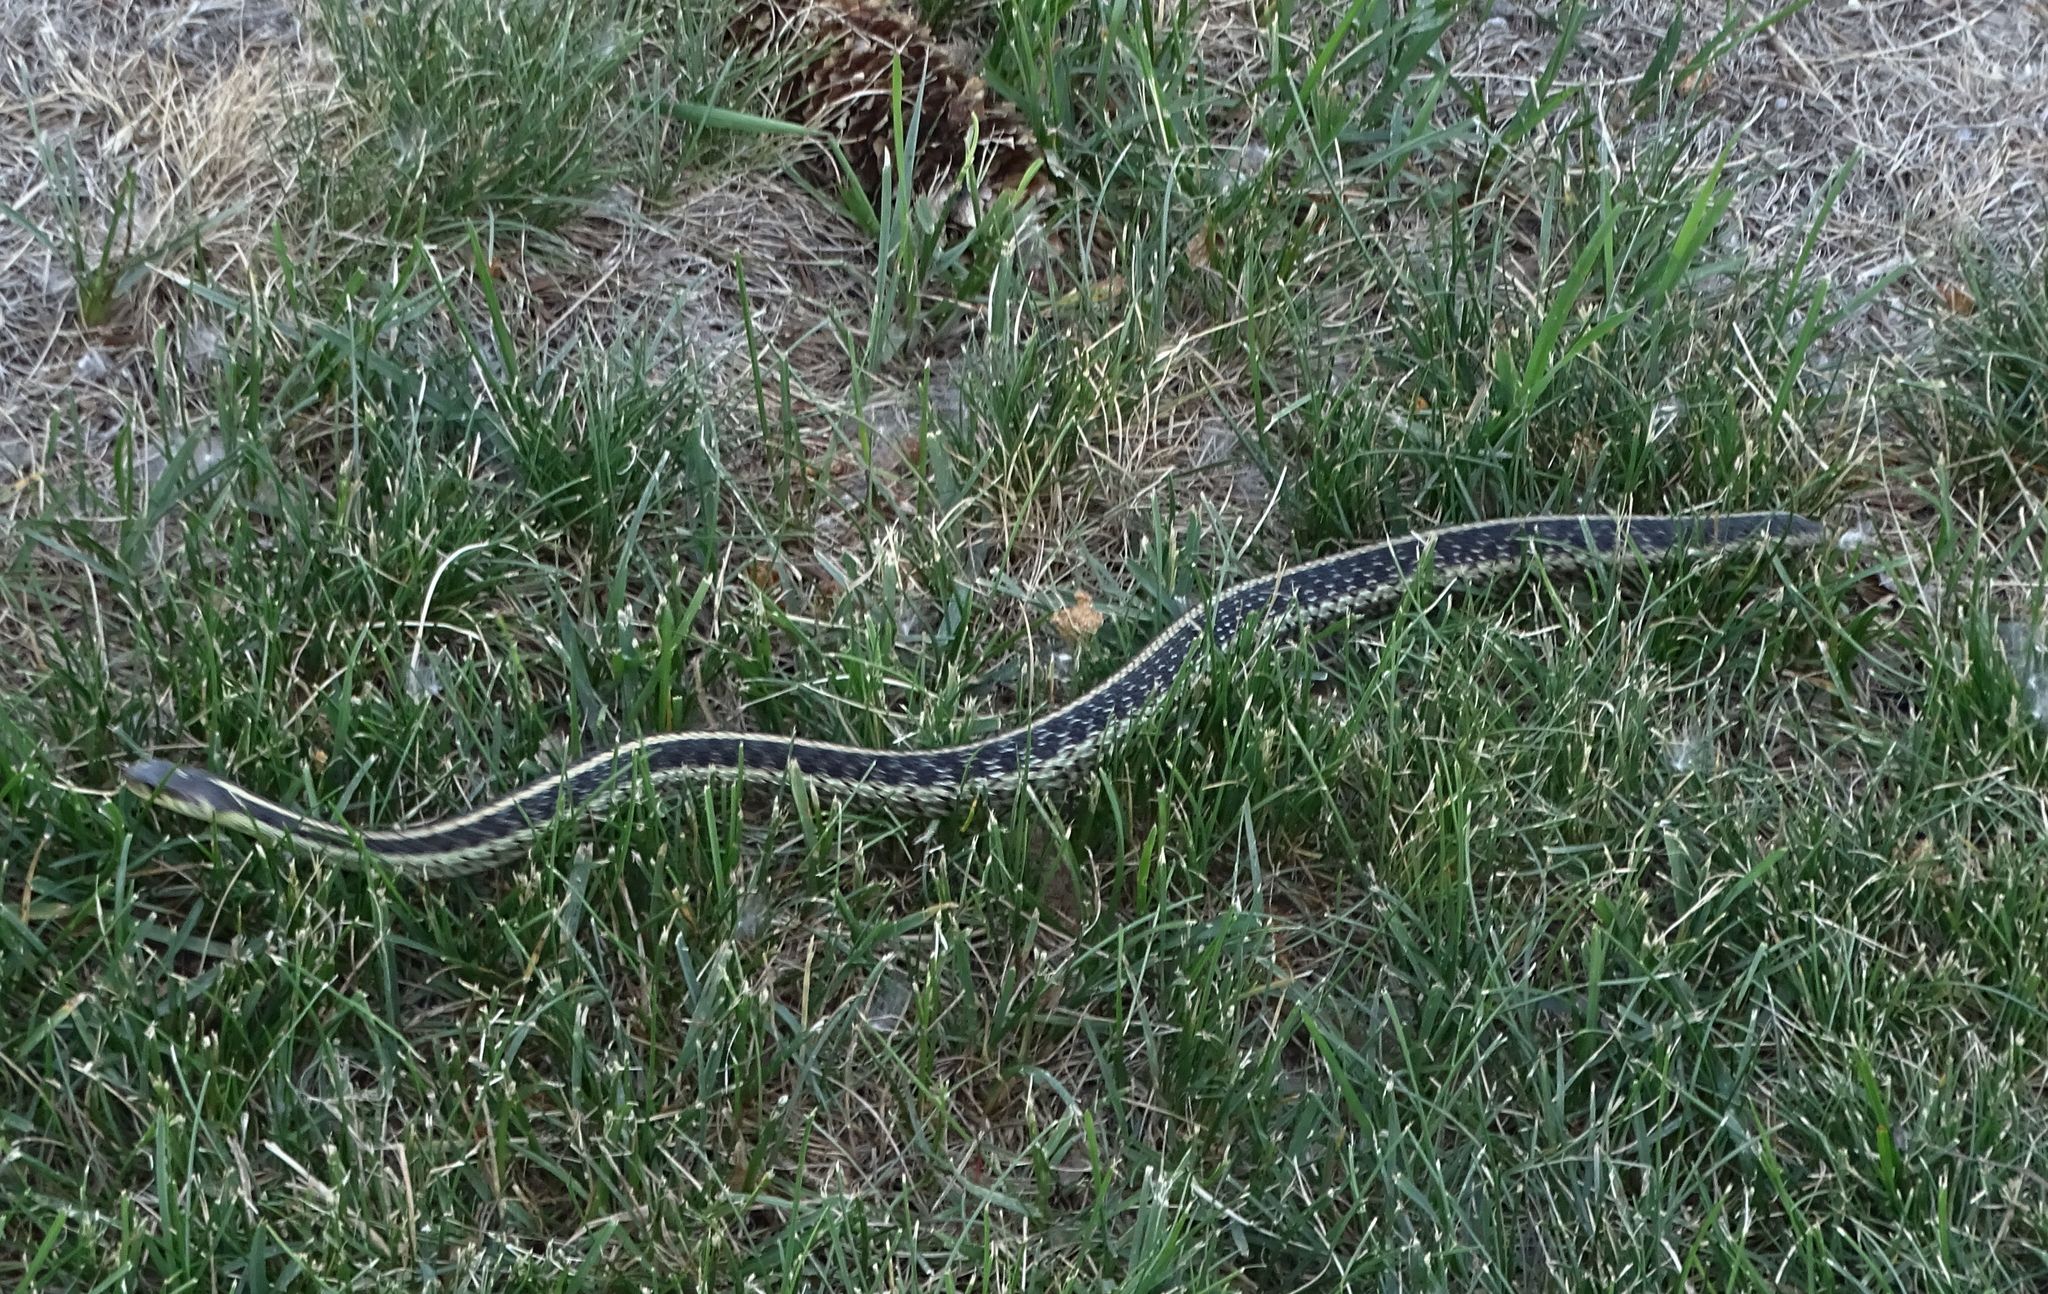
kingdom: Animalia
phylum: Chordata
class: Squamata
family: Colubridae
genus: Thamnophis
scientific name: Thamnophis sirtalis
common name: Common garter snake
